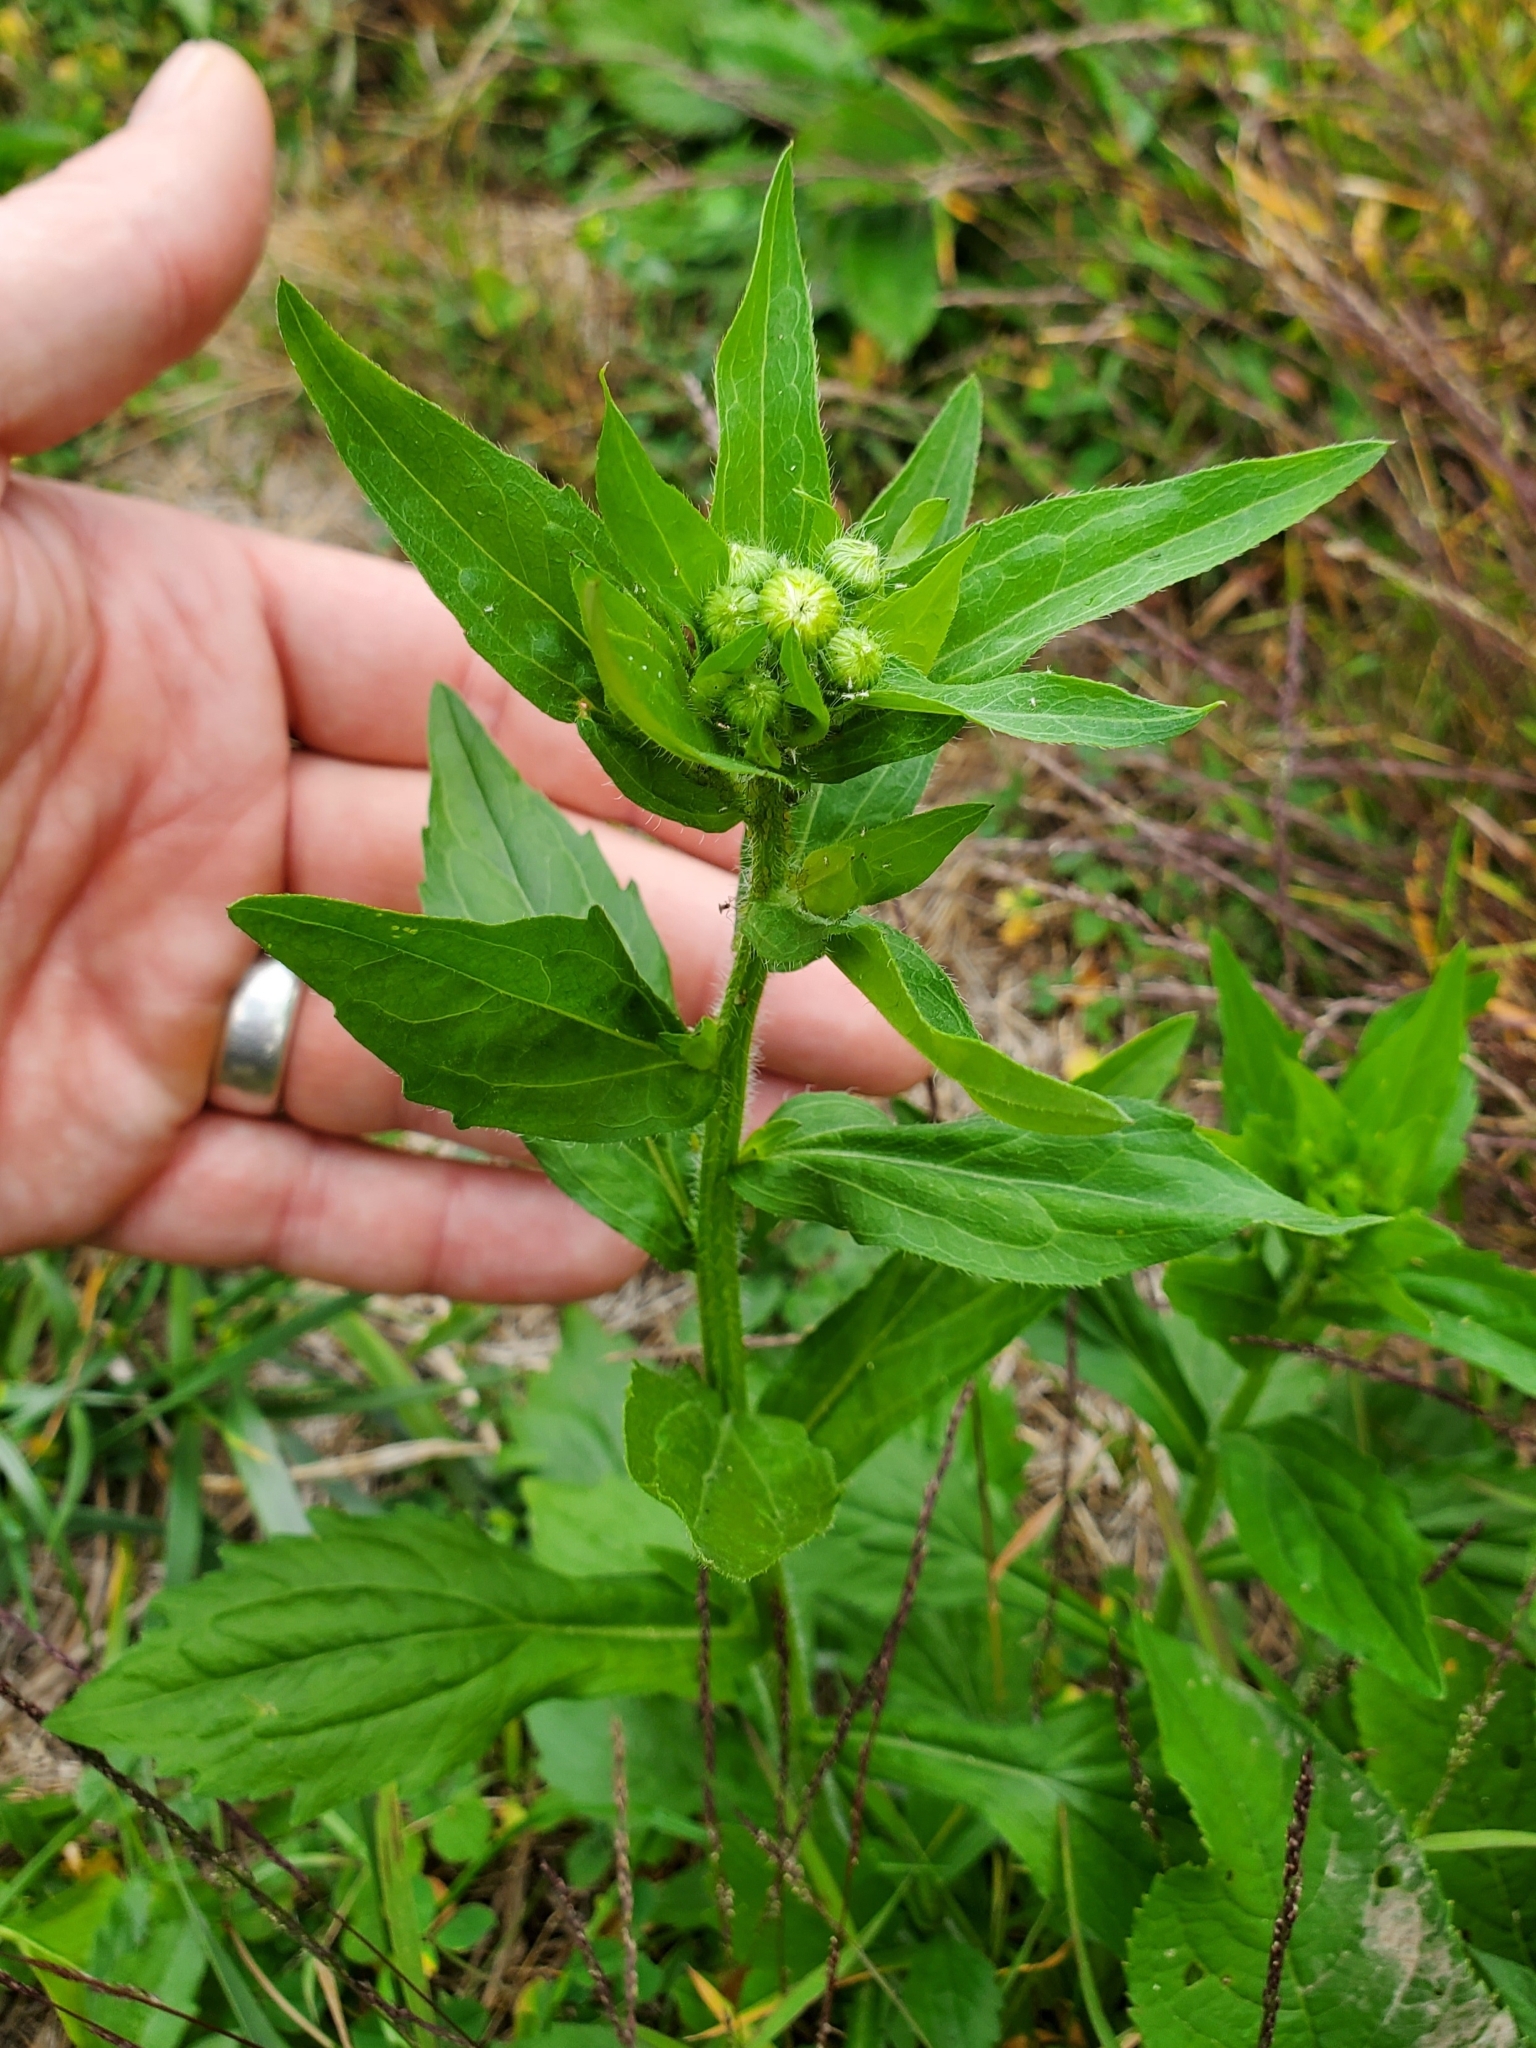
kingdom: Plantae
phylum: Tracheophyta
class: Magnoliopsida
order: Asterales
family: Asteraceae
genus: Erigeron
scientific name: Erigeron annuus
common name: Tall fleabane
